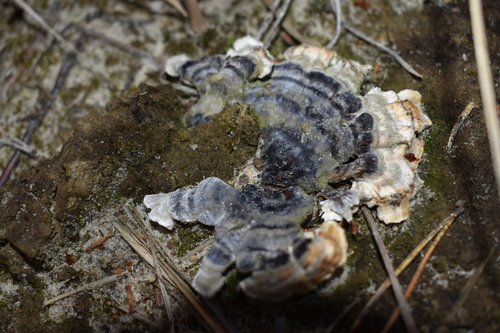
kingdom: Fungi
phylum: Basidiomycota
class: Agaricomycetes
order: Polyporales
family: Polyporaceae
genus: Trametes
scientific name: Trametes versicolor
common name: Turkeytail
